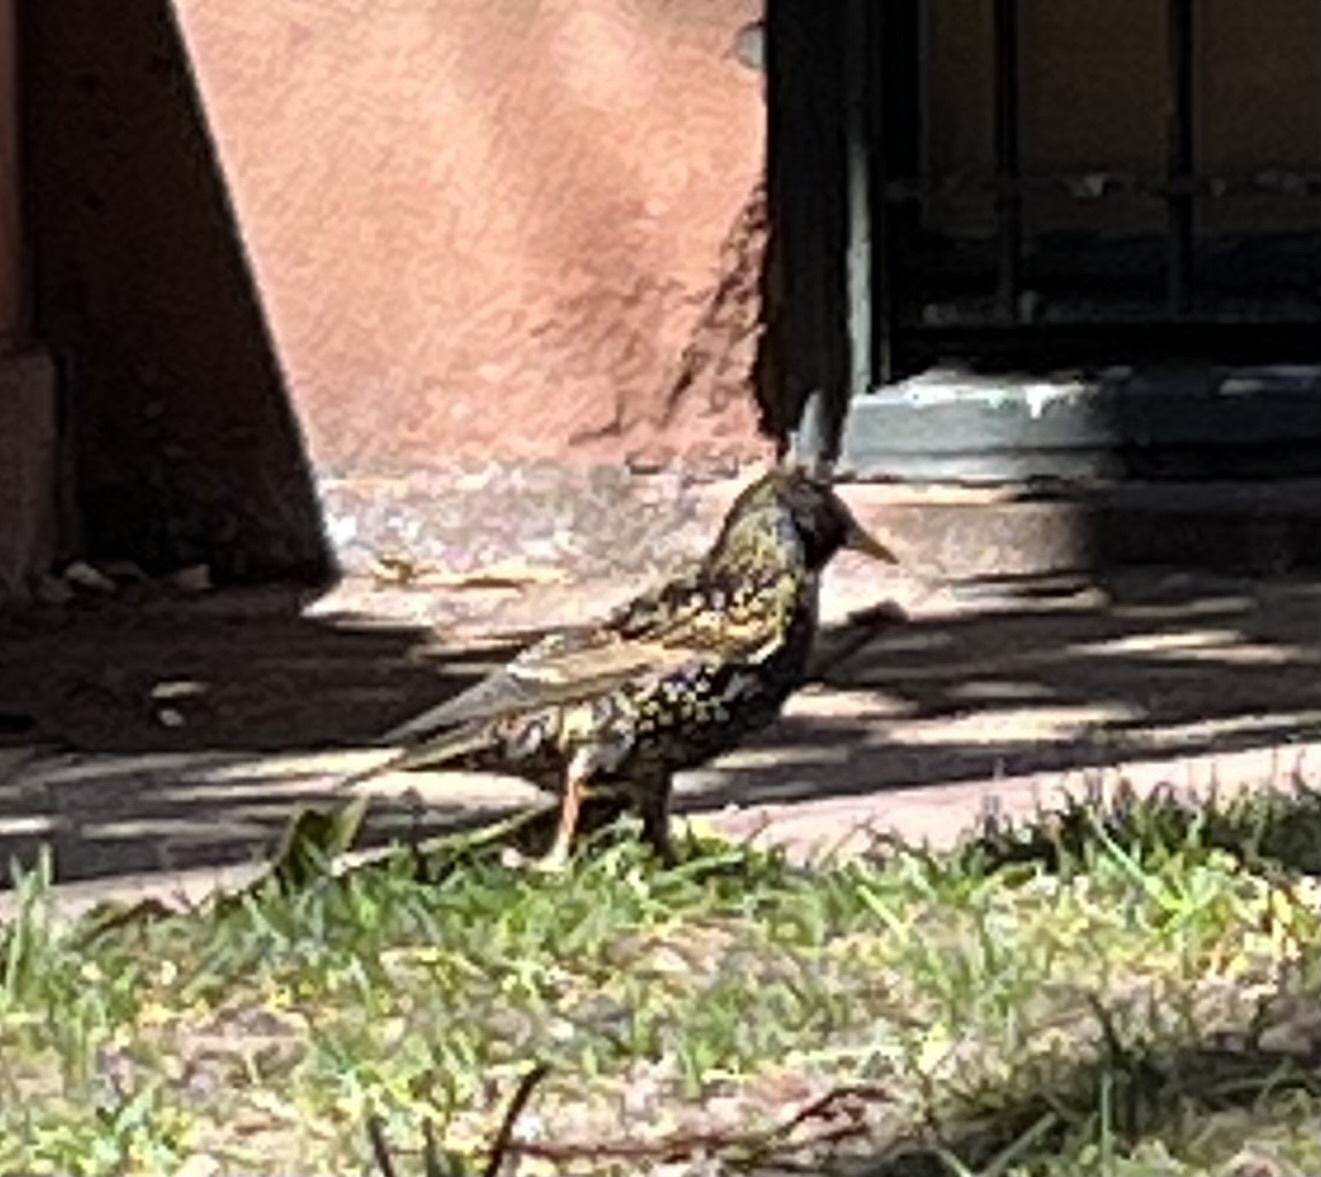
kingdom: Animalia
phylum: Chordata
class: Aves
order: Passeriformes
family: Sturnidae
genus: Sturnus
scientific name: Sturnus vulgaris
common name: Common starling
